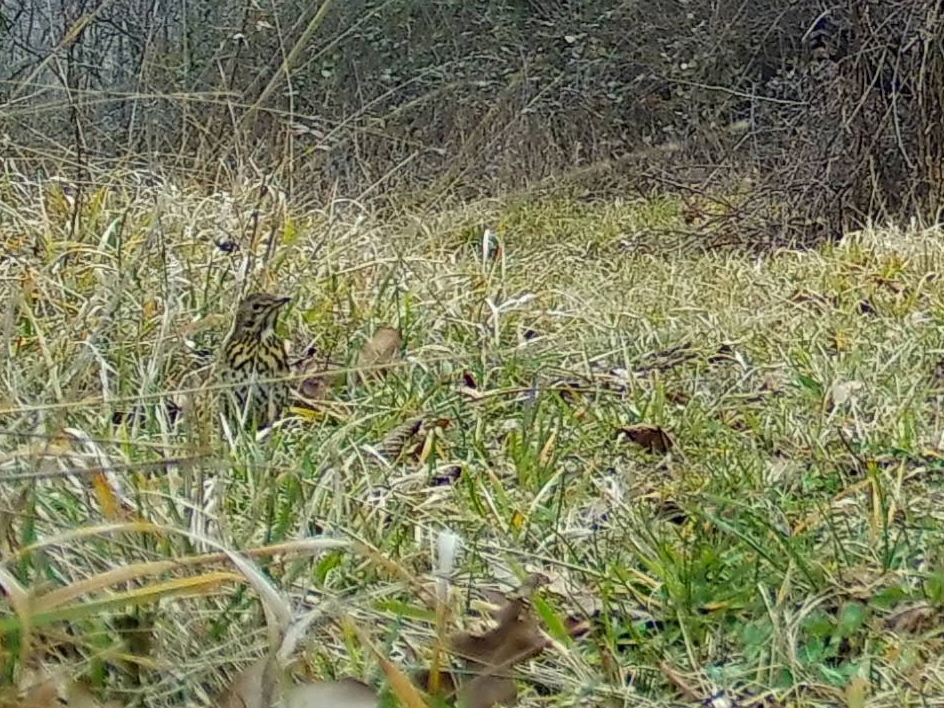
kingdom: Animalia
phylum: Chordata
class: Aves
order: Passeriformes
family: Turdidae
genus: Turdus
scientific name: Turdus philomelos
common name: Song thrush
